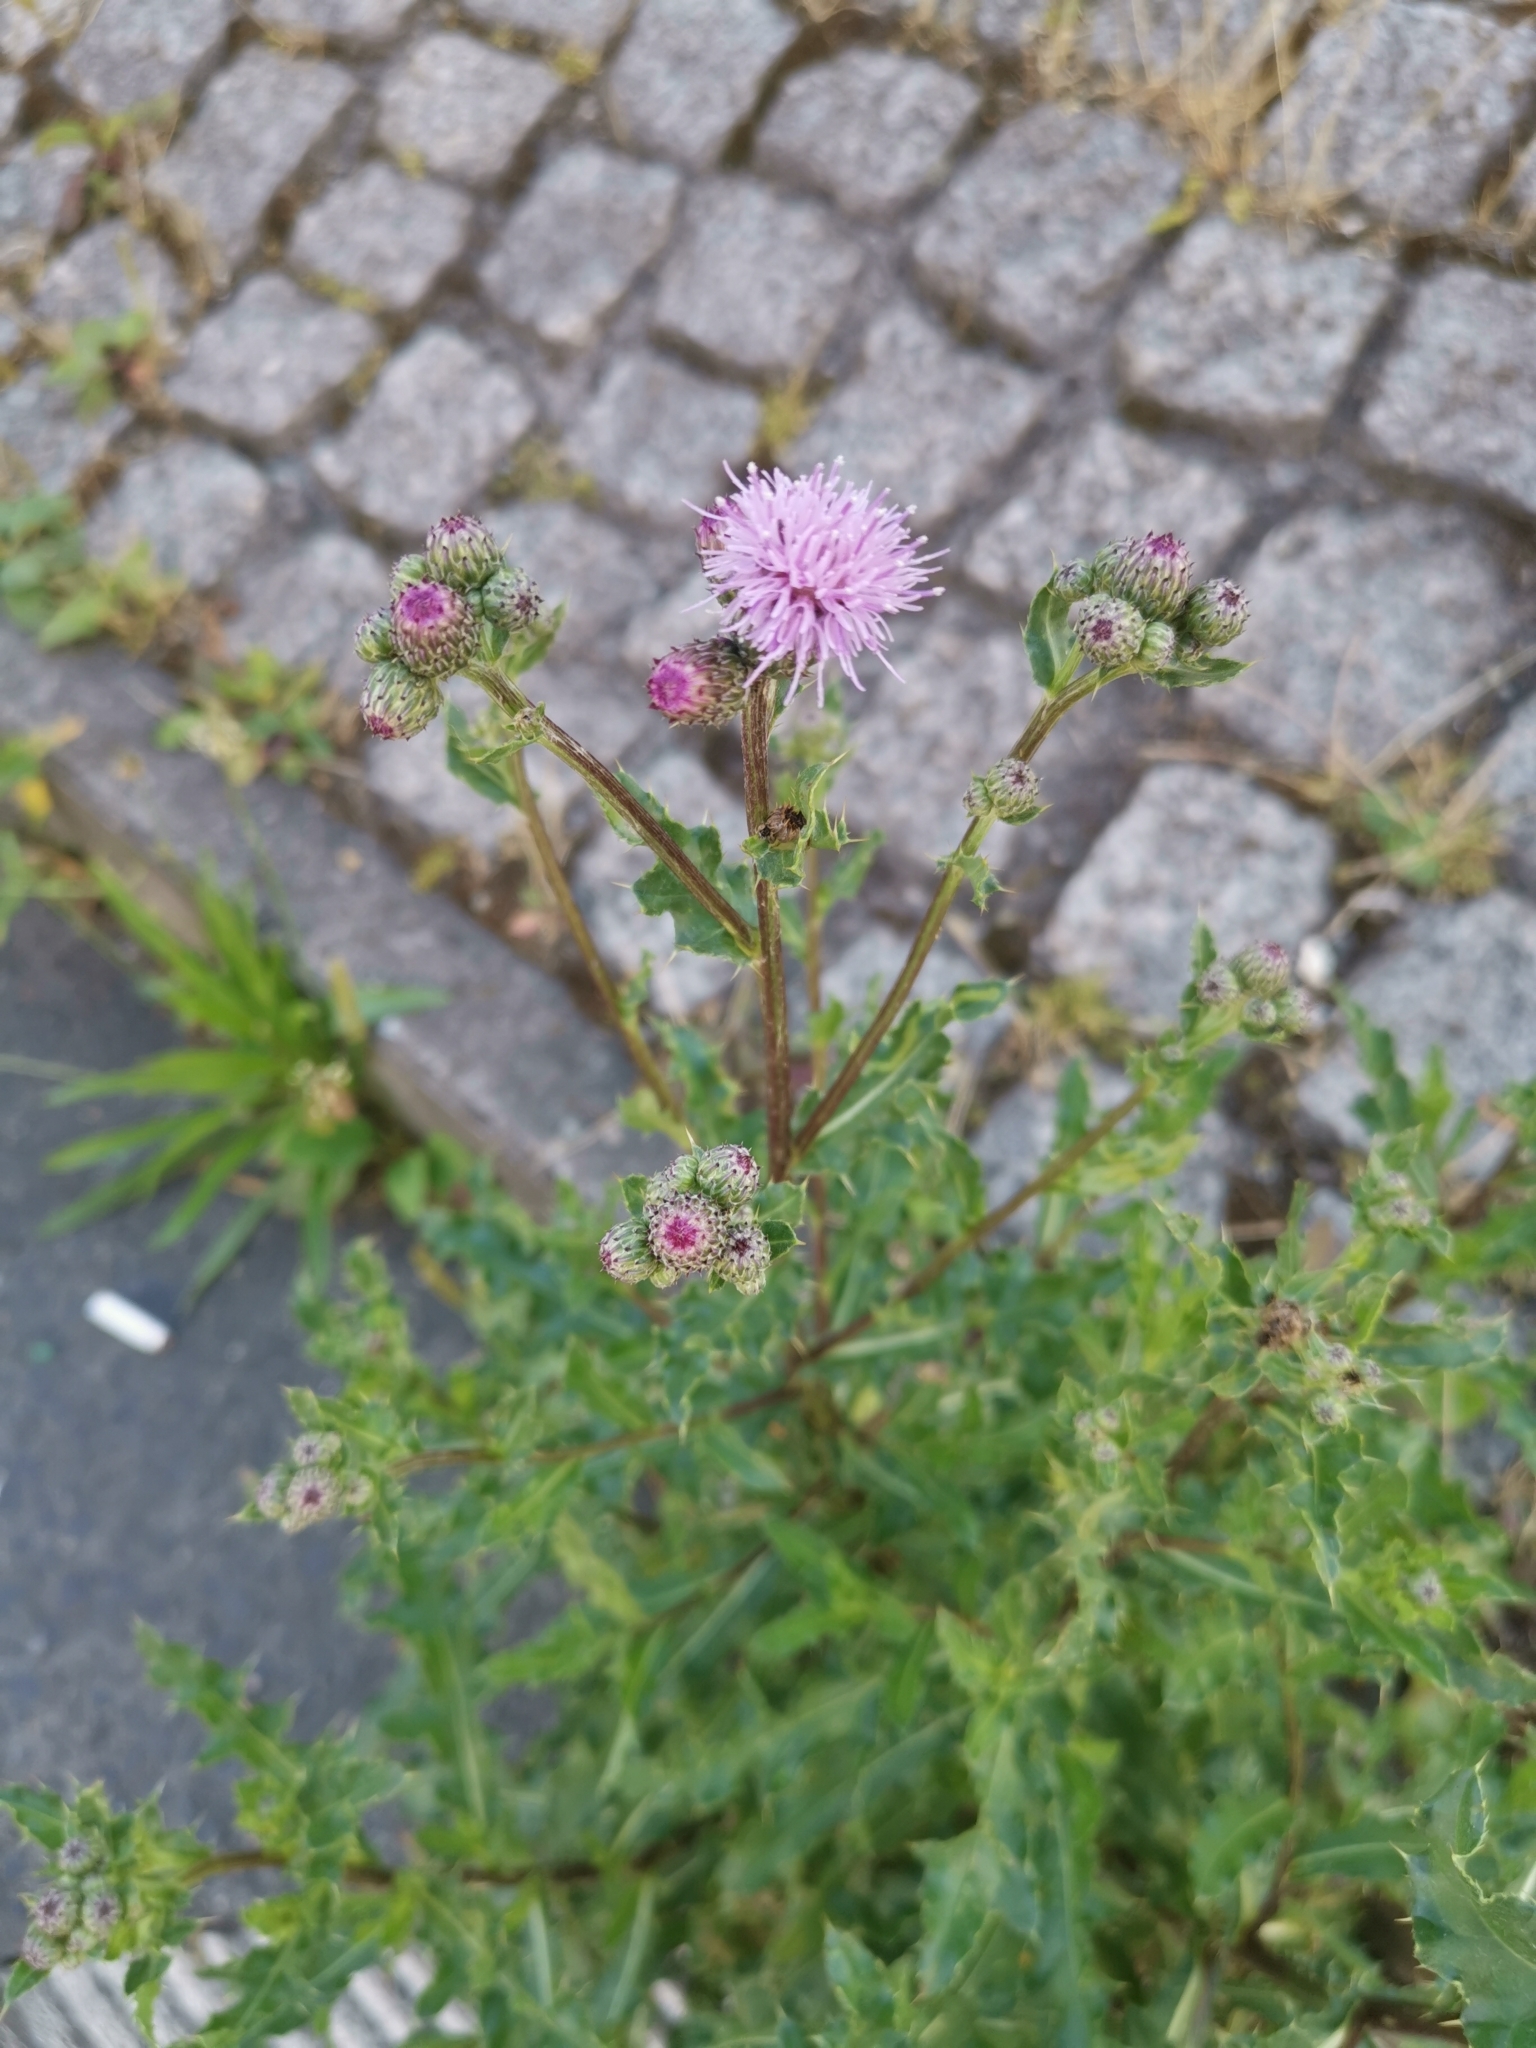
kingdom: Plantae
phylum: Tracheophyta
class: Magnoliopsida
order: Asterales
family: Asteraceae
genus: Cirsium
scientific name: Cirsium arvense
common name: Creeping thistle
